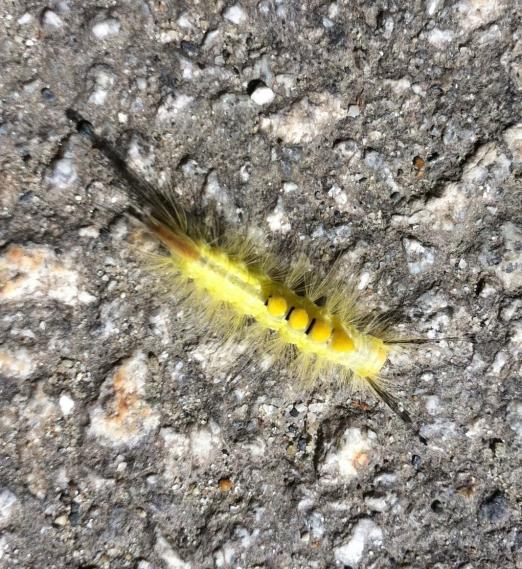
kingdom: Animalia
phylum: Arthropoda
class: Insecta
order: Lepidoptera
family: Erebidae
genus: Orgyia
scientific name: Orgyia definita
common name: Definite tussock moth
